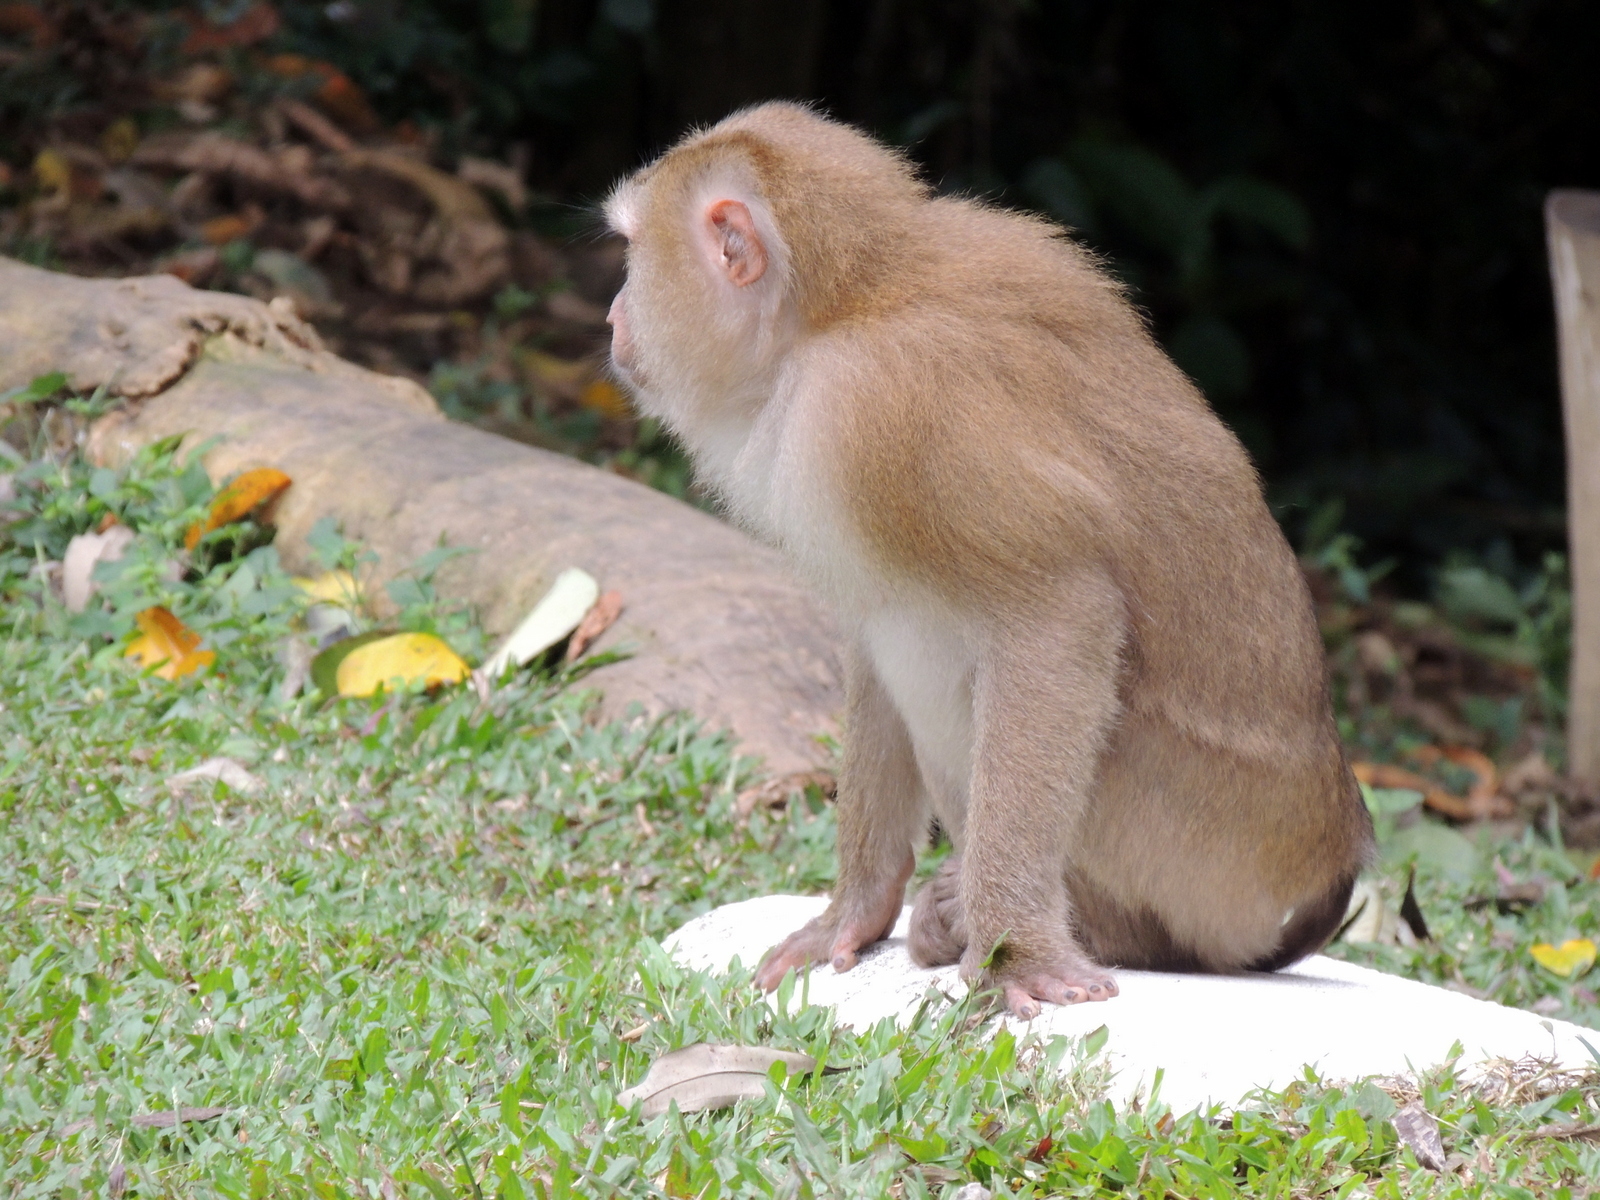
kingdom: Animalia
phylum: Chordata
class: Mammalia
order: Primates
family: Cercopithecidae
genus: Macaca
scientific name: Macaca leonina
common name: Northern pig-tailed macaque
